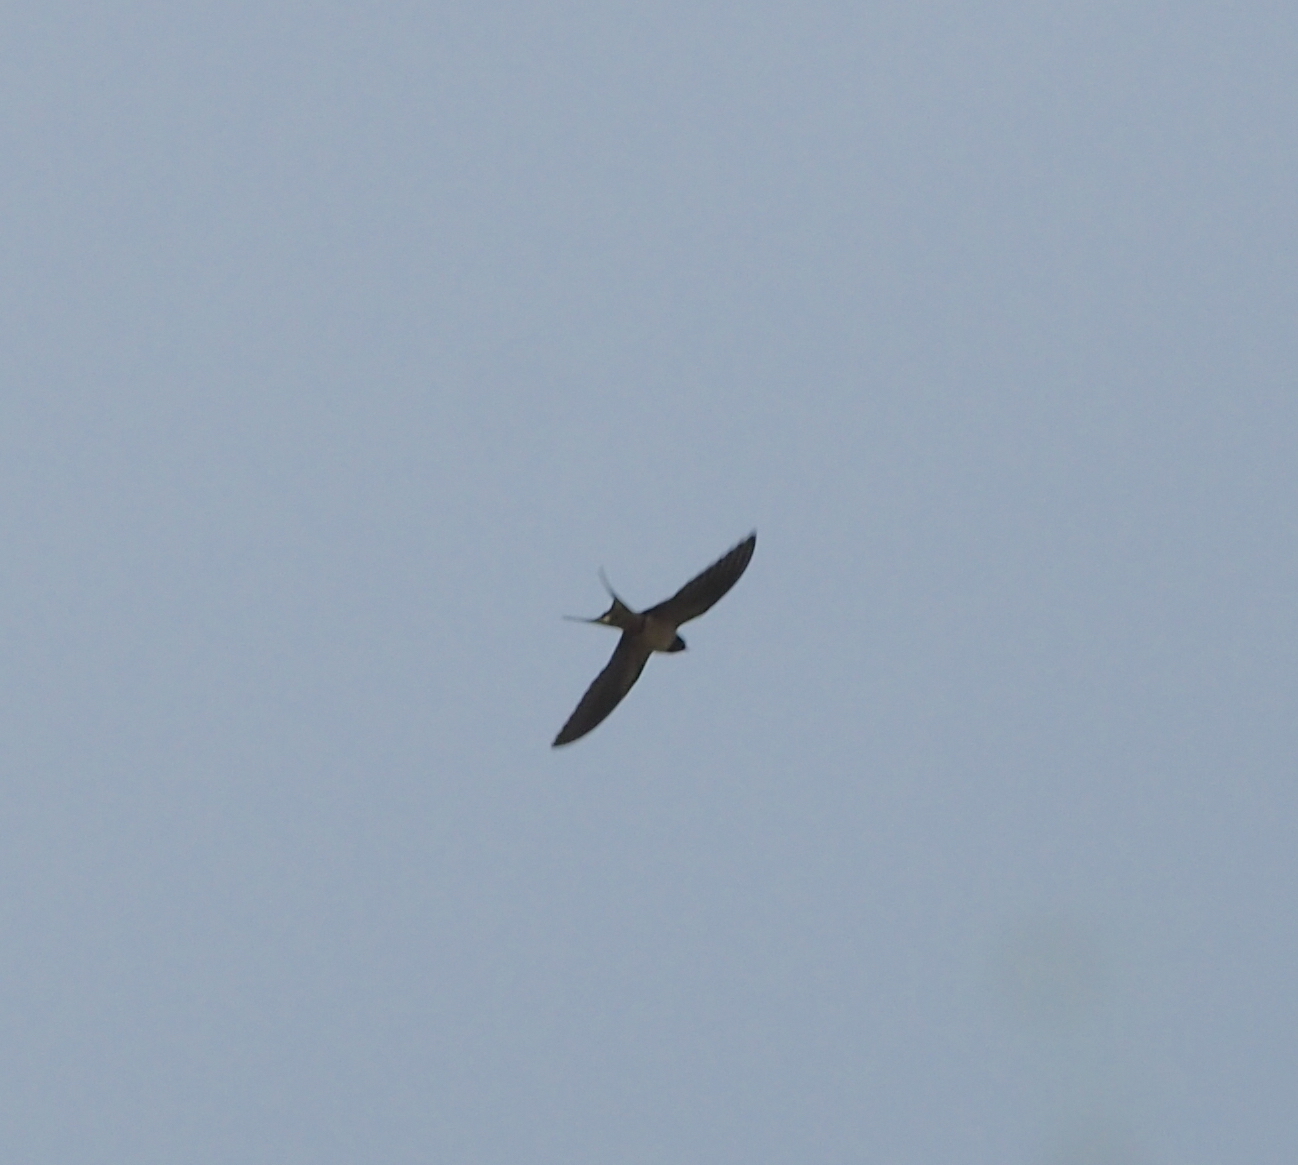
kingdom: Animalia
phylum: Chordata
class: Aves
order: Passeriformes
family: Hirundinidae
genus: Hirundo
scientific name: Hirundo rustica
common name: Barn swallow
